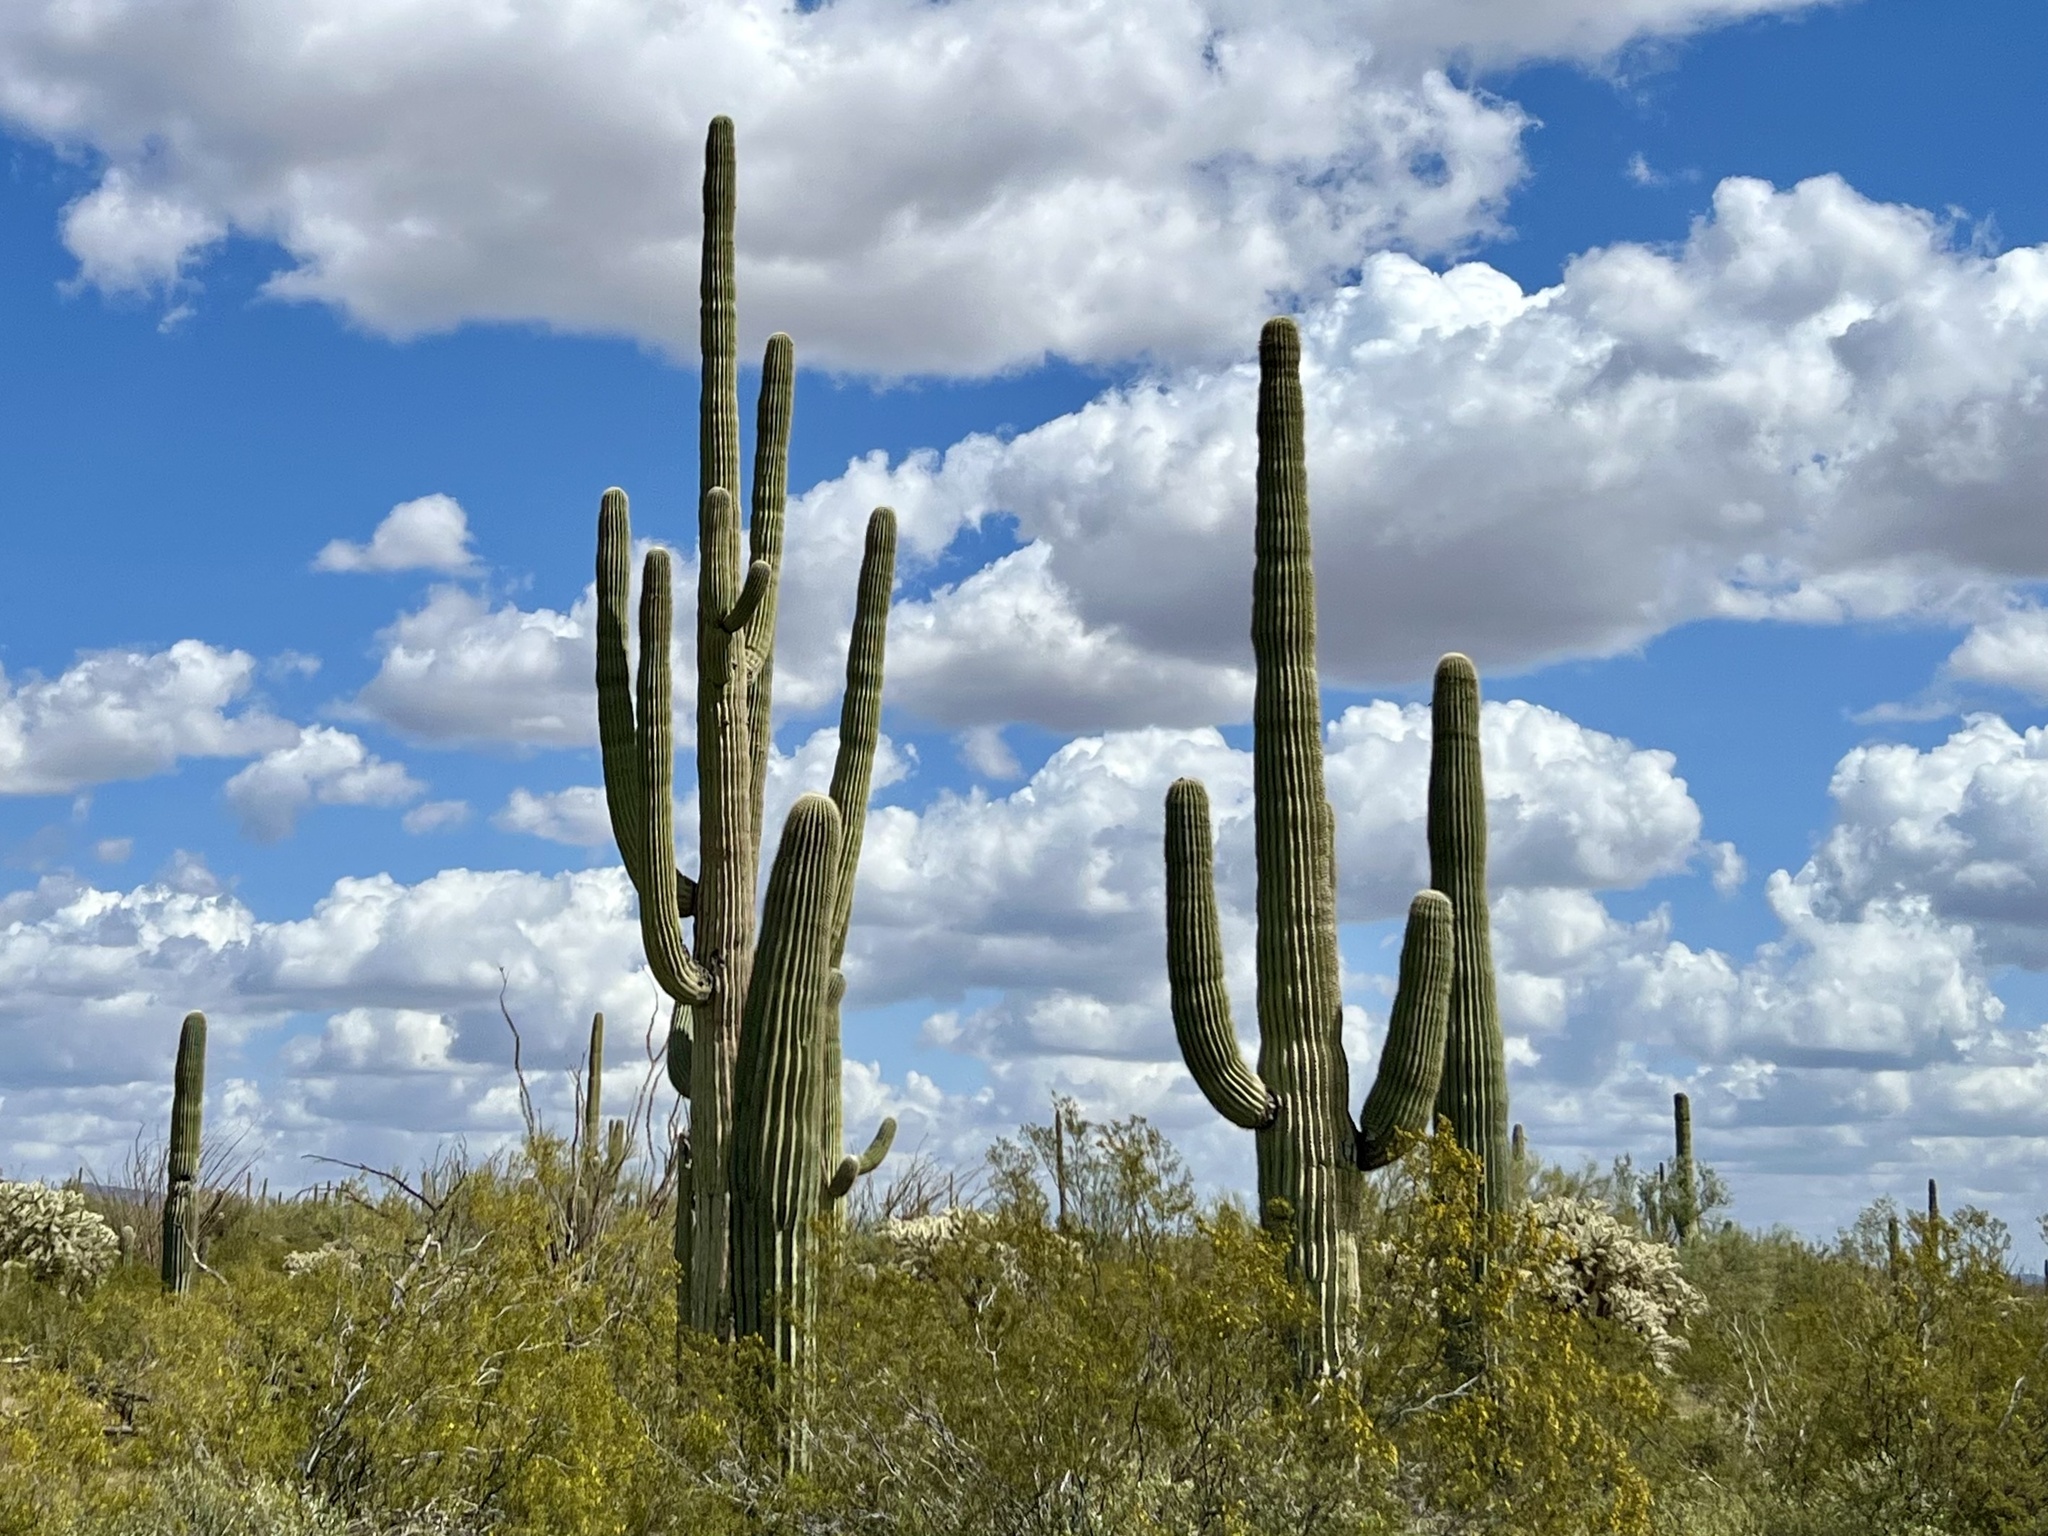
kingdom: Plantae
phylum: Tracheophyta
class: Magnoliopsida
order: Caryophyllales
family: Cactaceae
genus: Carnegiea
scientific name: Carnegiea gigantea
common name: Saguaro
